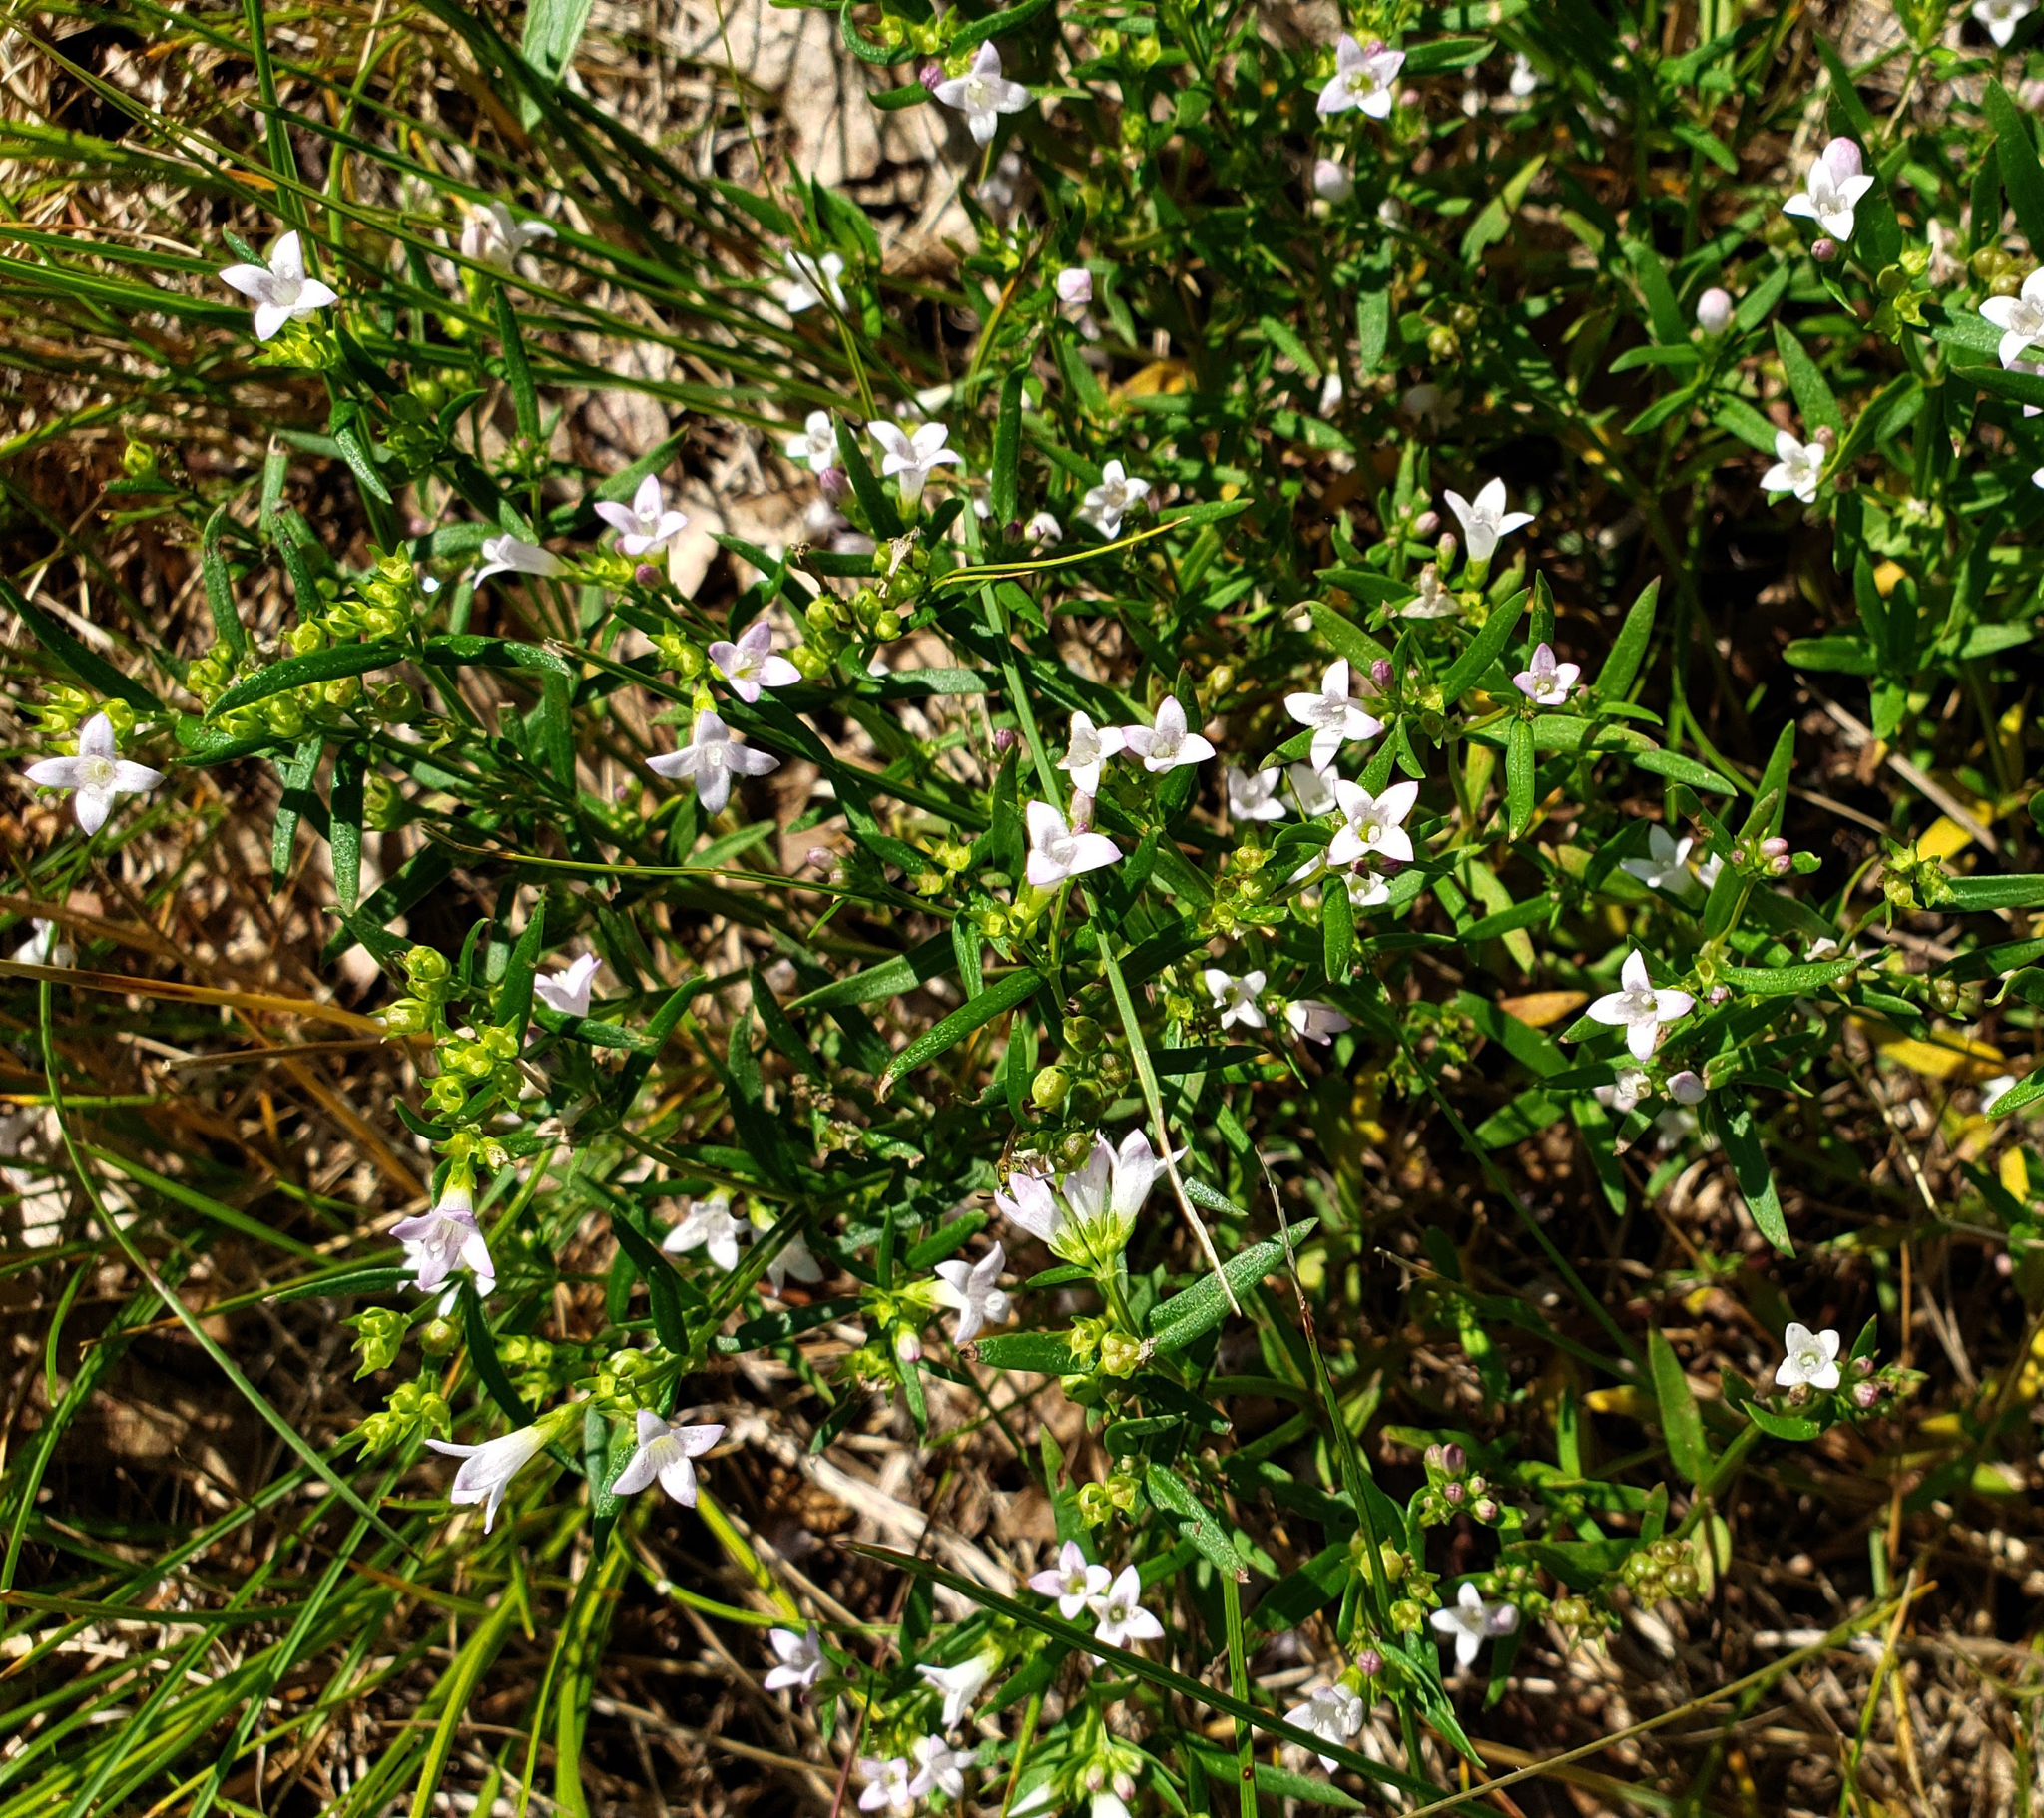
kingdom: Plantae
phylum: Tracheophyta
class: Magnoliopsida
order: Gentianales
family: Rubiaceae
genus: Houstonia
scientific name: Houstonia longifolia
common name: Long-leaved bluets
